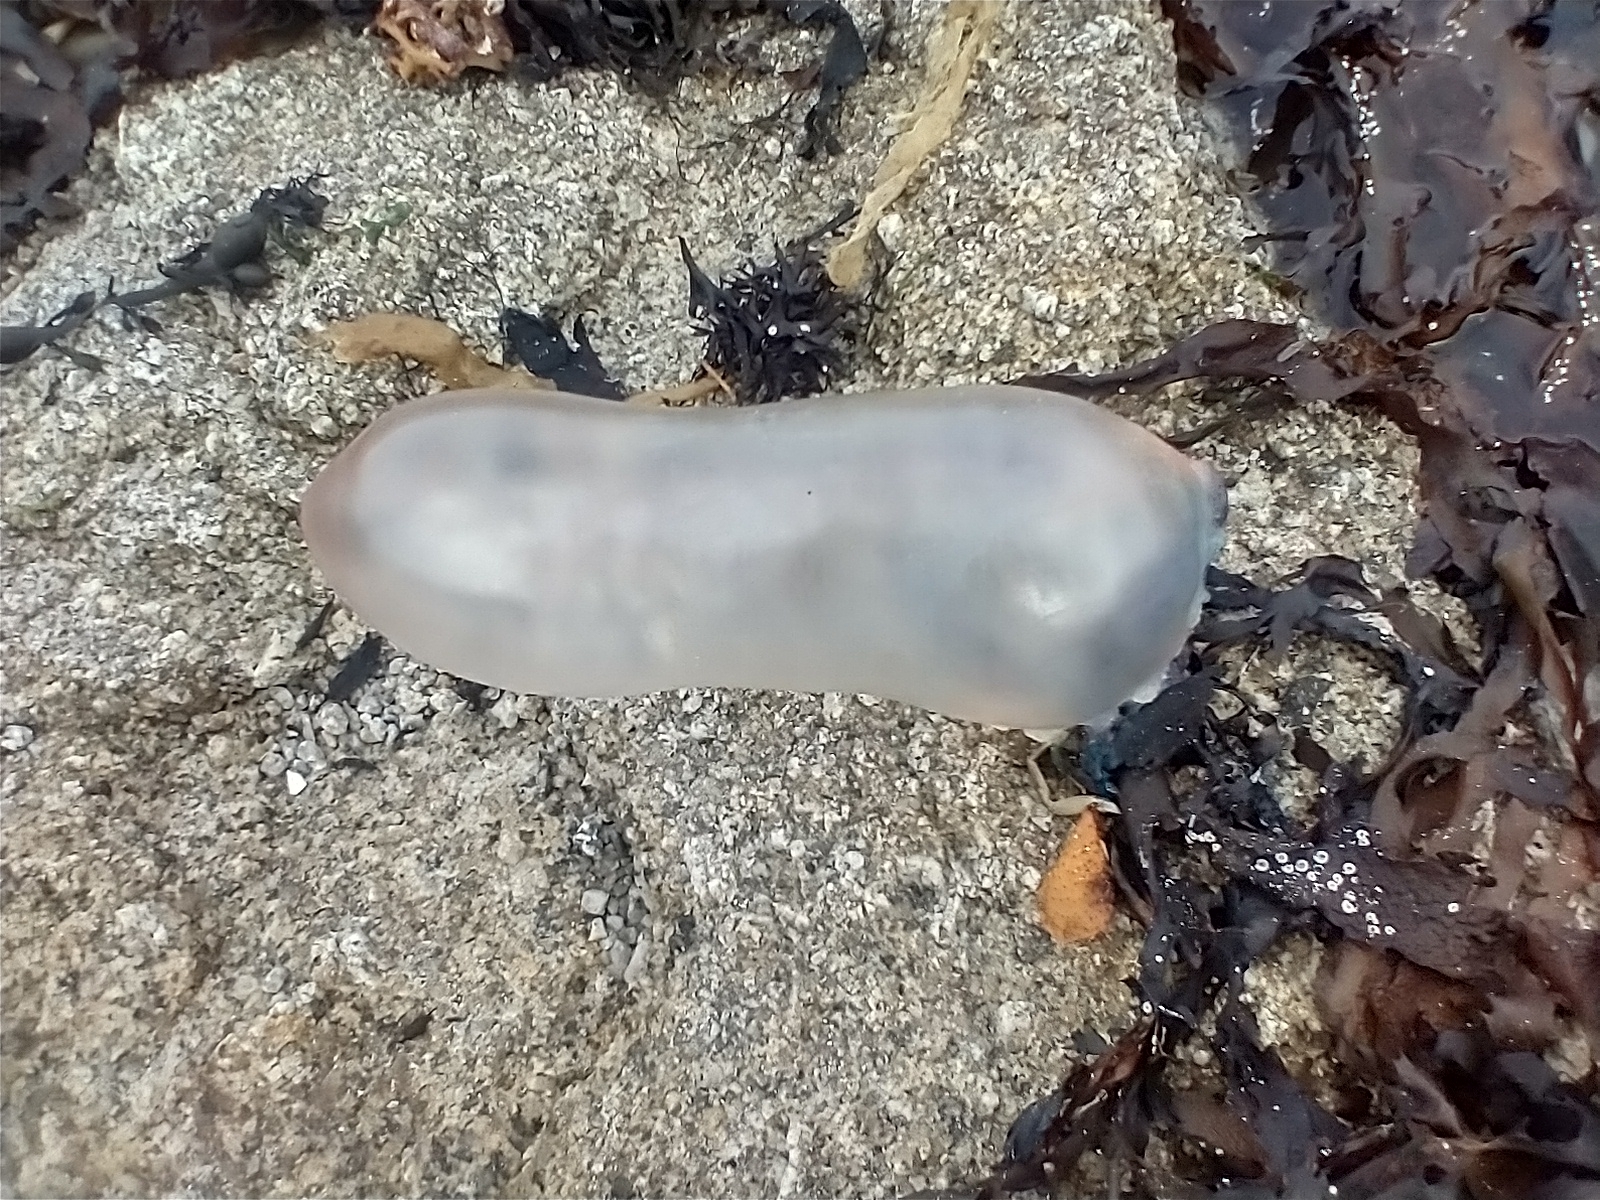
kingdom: Animalia
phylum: Cnidaria
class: Hydrozoa
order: Siphonophorae
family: Physaliidae
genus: Physalia
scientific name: Physalia physalis
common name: Portuguese man-of-war
